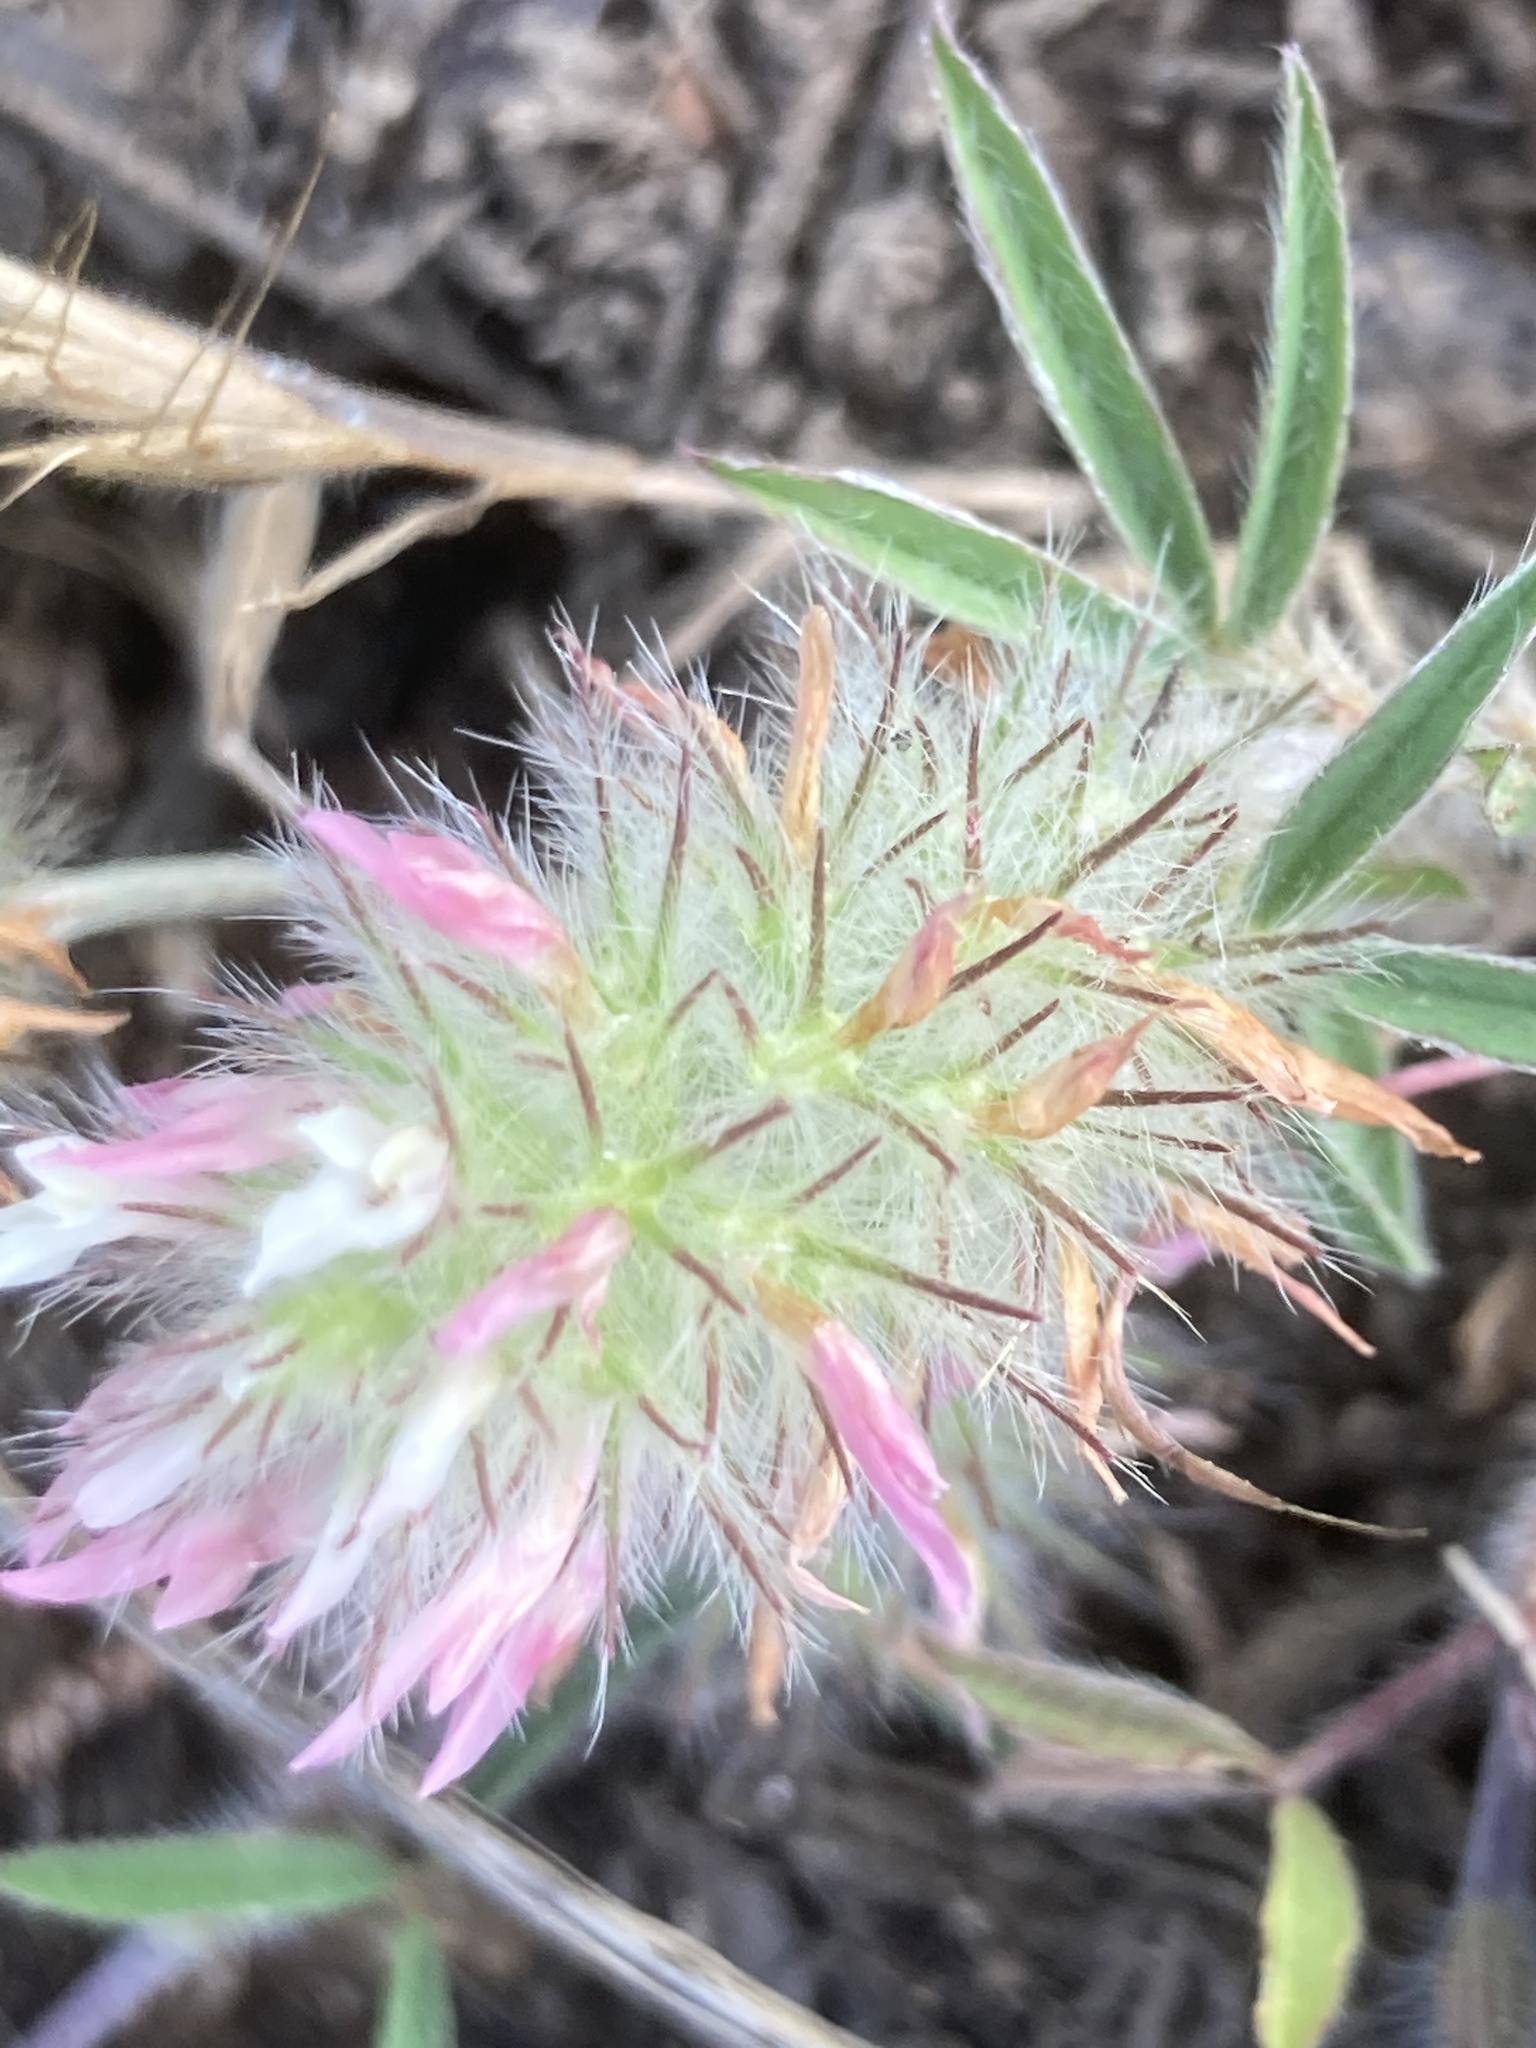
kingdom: Plantae
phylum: Tracheophyta
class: Magnoliopsida
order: Fabales
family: Fabaceae
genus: Trifolium
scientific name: Trifolium infamia-ponertii
